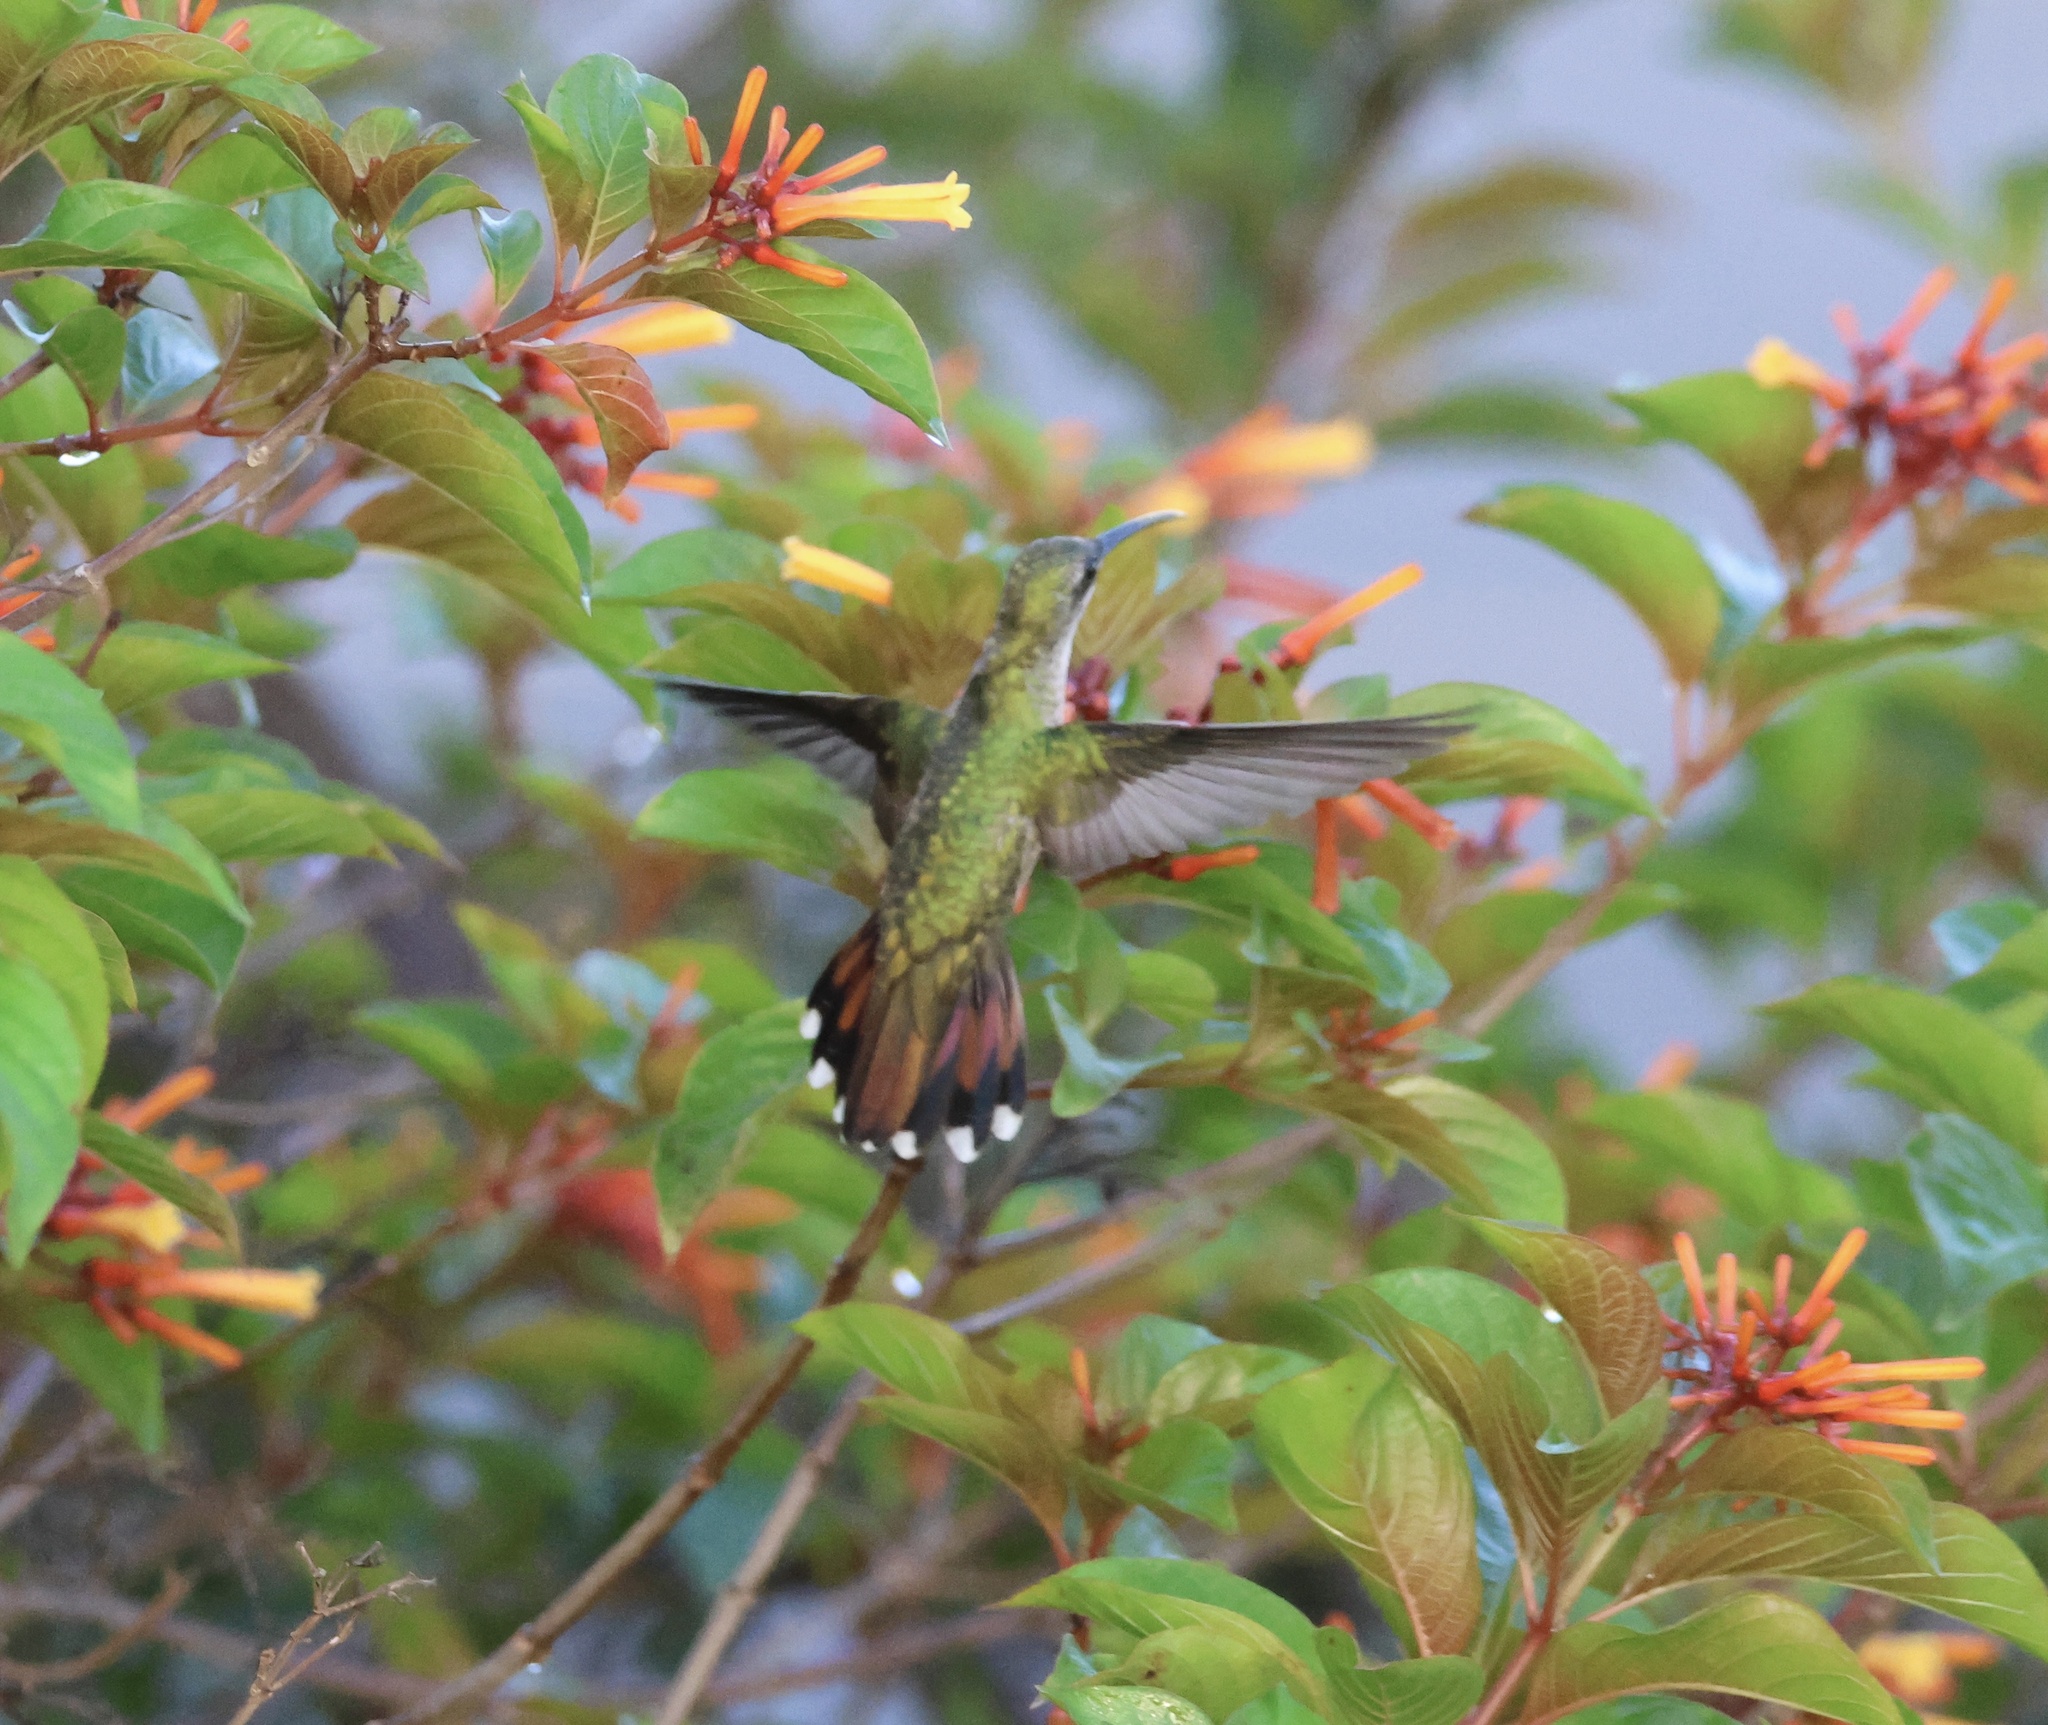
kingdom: Animalia
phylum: Chordata
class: Aves
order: Apodiformes
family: Trochilidae
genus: Anthracothorax
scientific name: Anthracothorax dominicus
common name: Antillean mango
